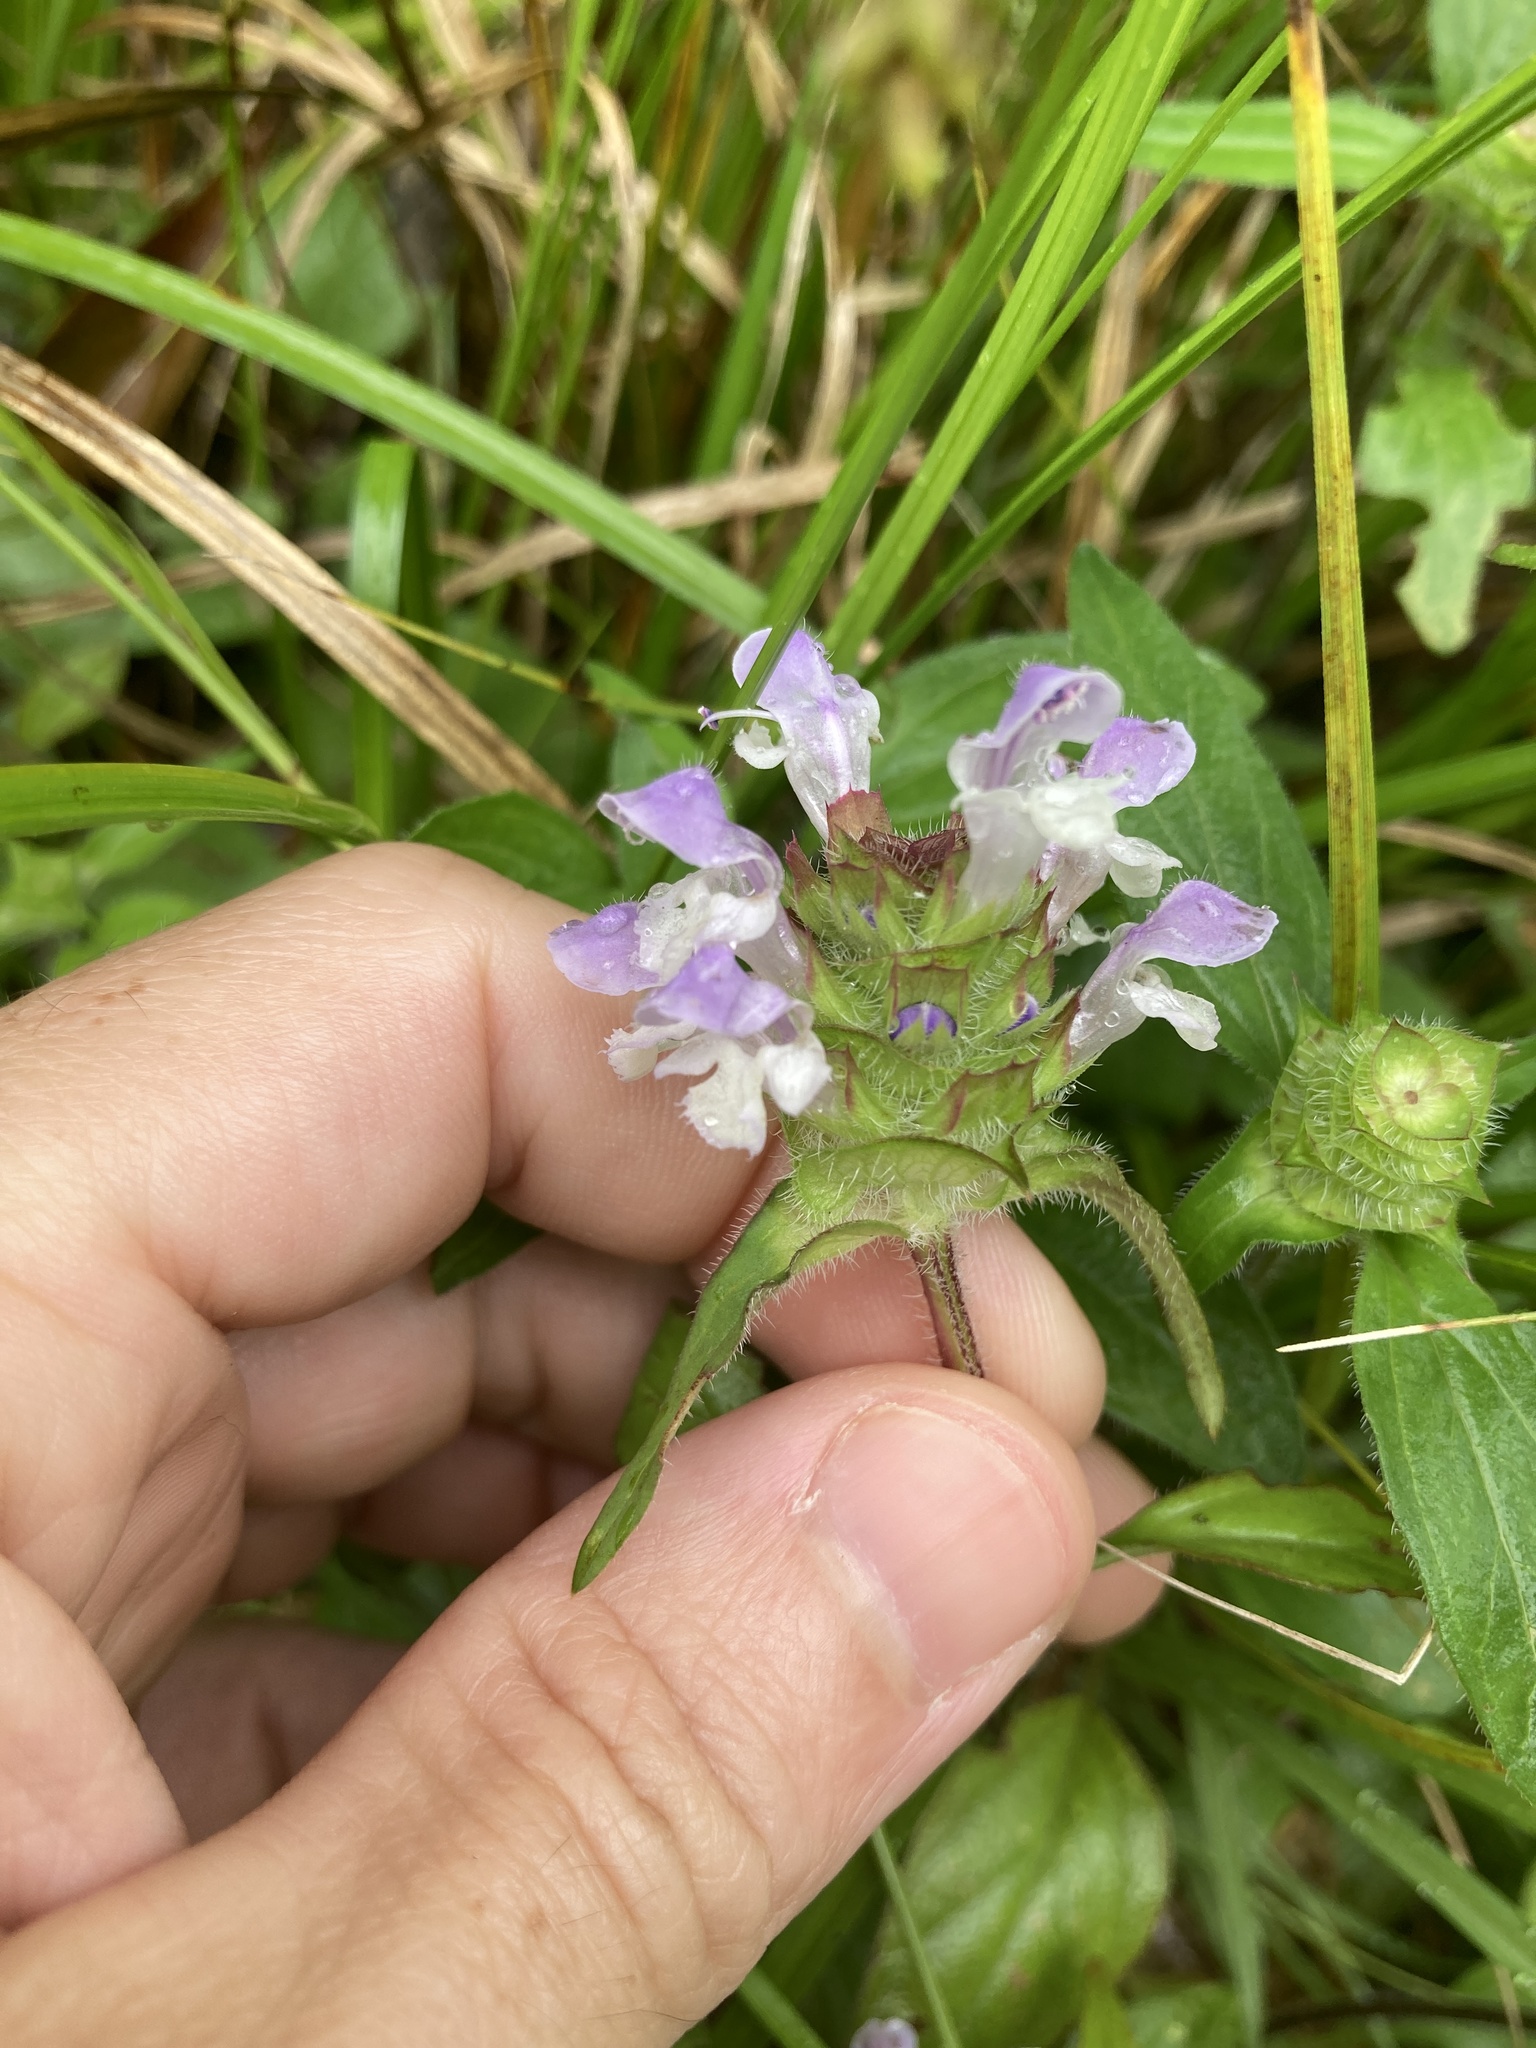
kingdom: Plantae
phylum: Tracheophyta
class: Magnoliopsida
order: Lamiales
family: Lamiaceae
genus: Prunella
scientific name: Prunella vulgaris
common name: Heal-all
